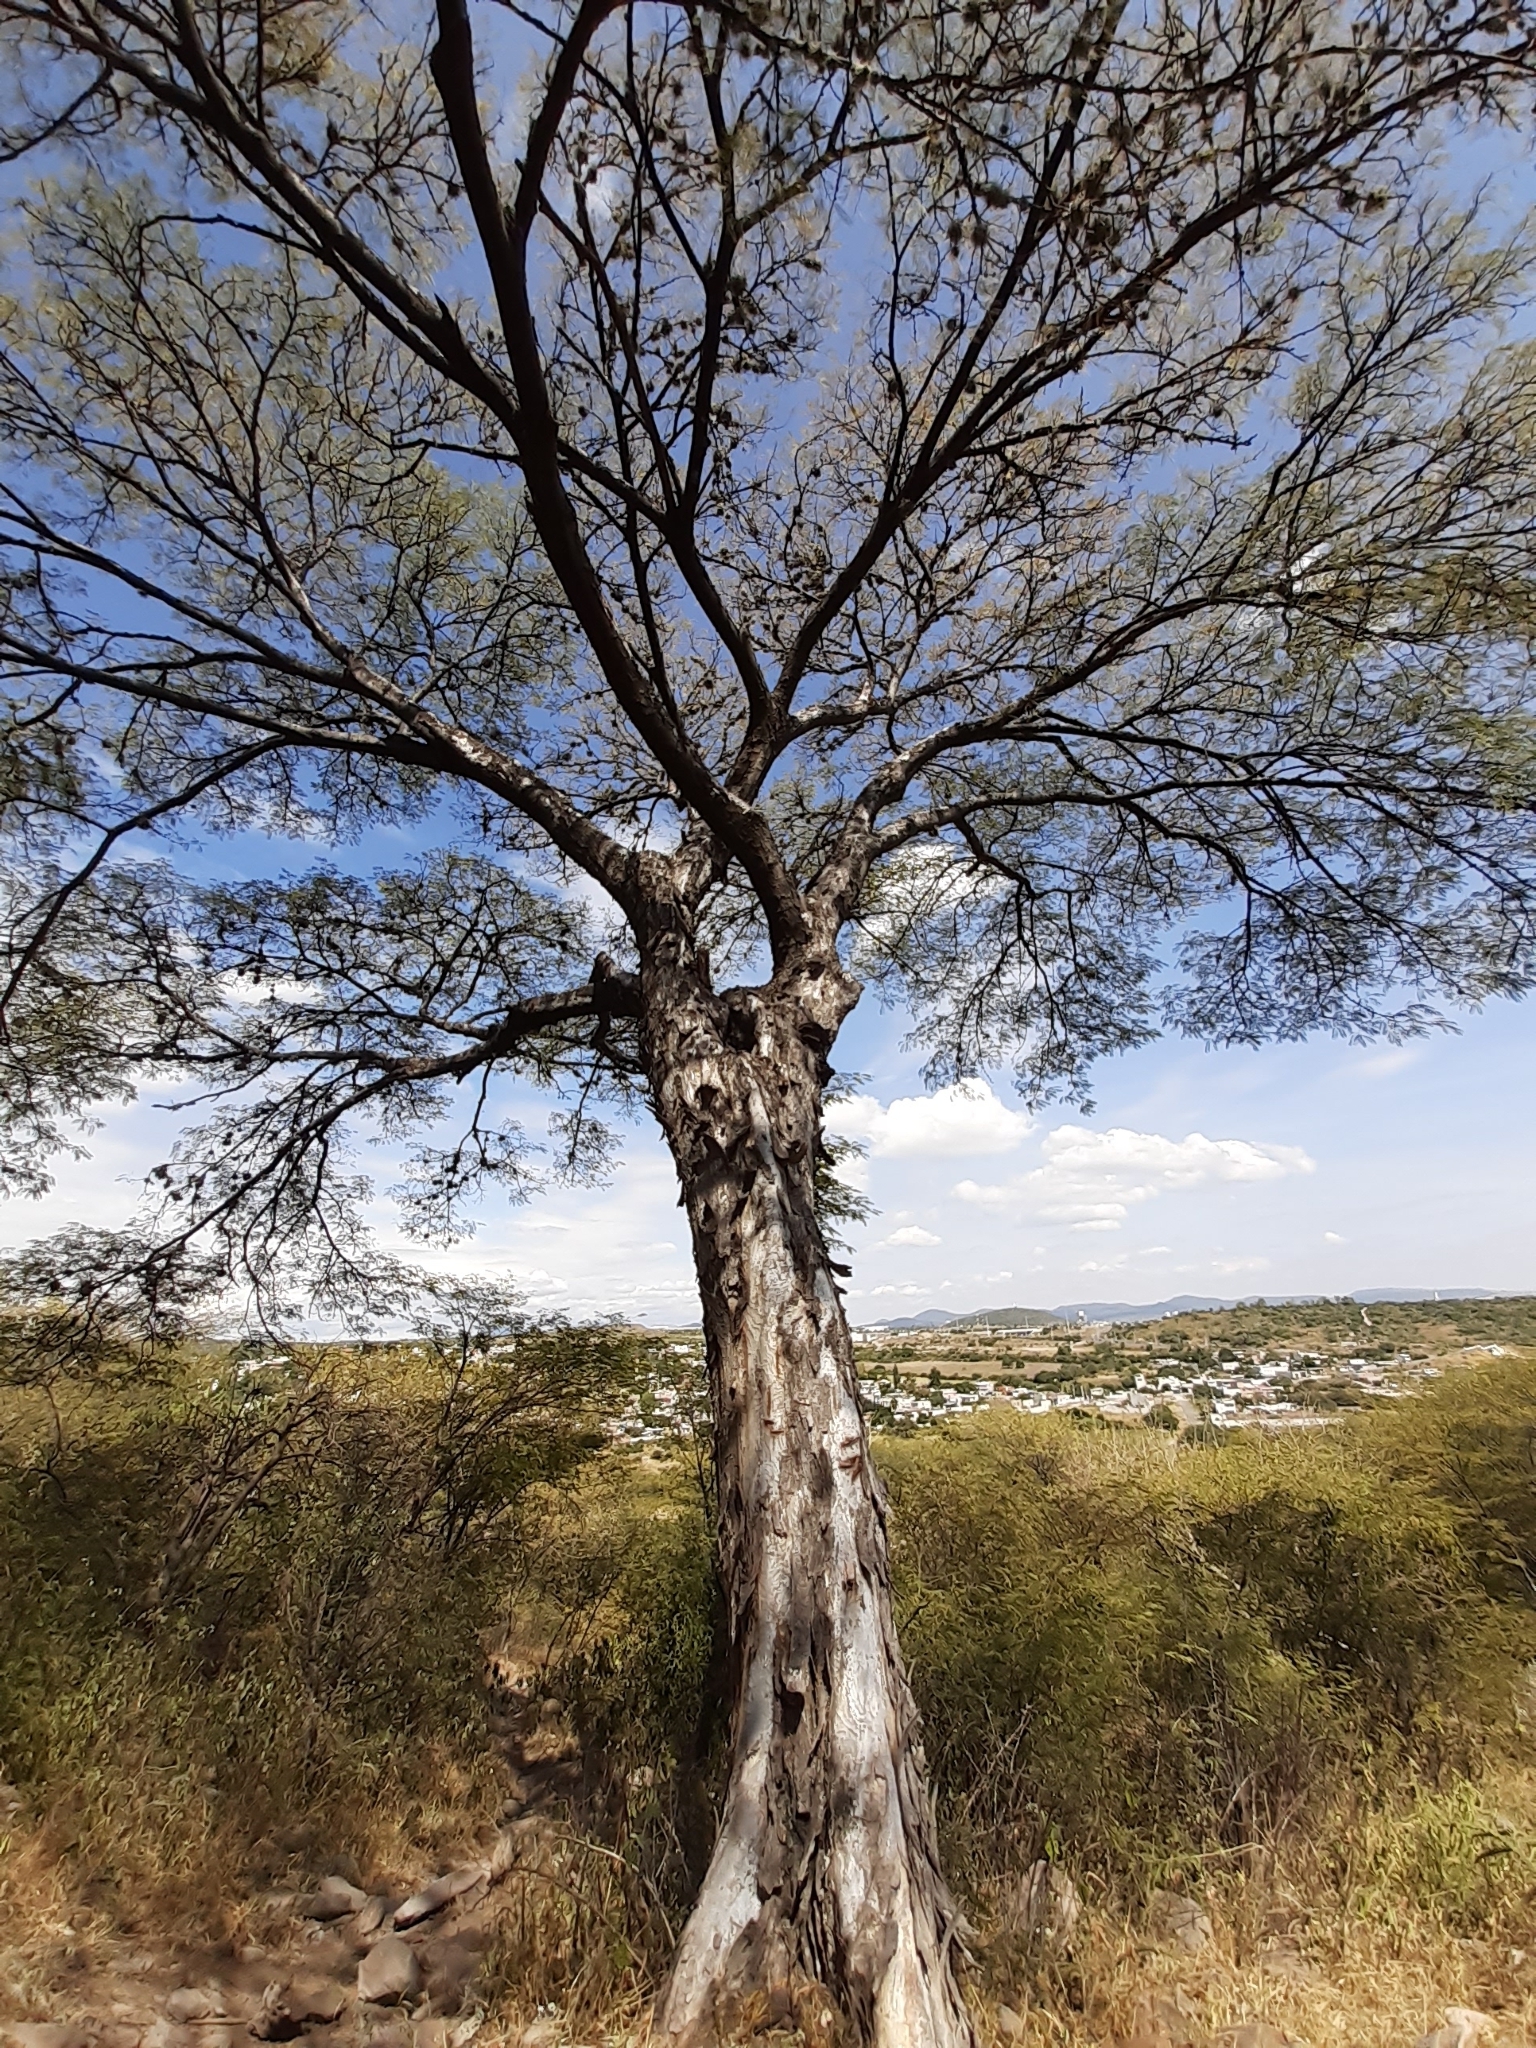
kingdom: Plantae
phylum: Tracheophyta
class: Magnoliopsida
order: Fabales
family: Fabaceae
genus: Prosopis
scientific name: Prosopis laevigata
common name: Smooth mesquite
